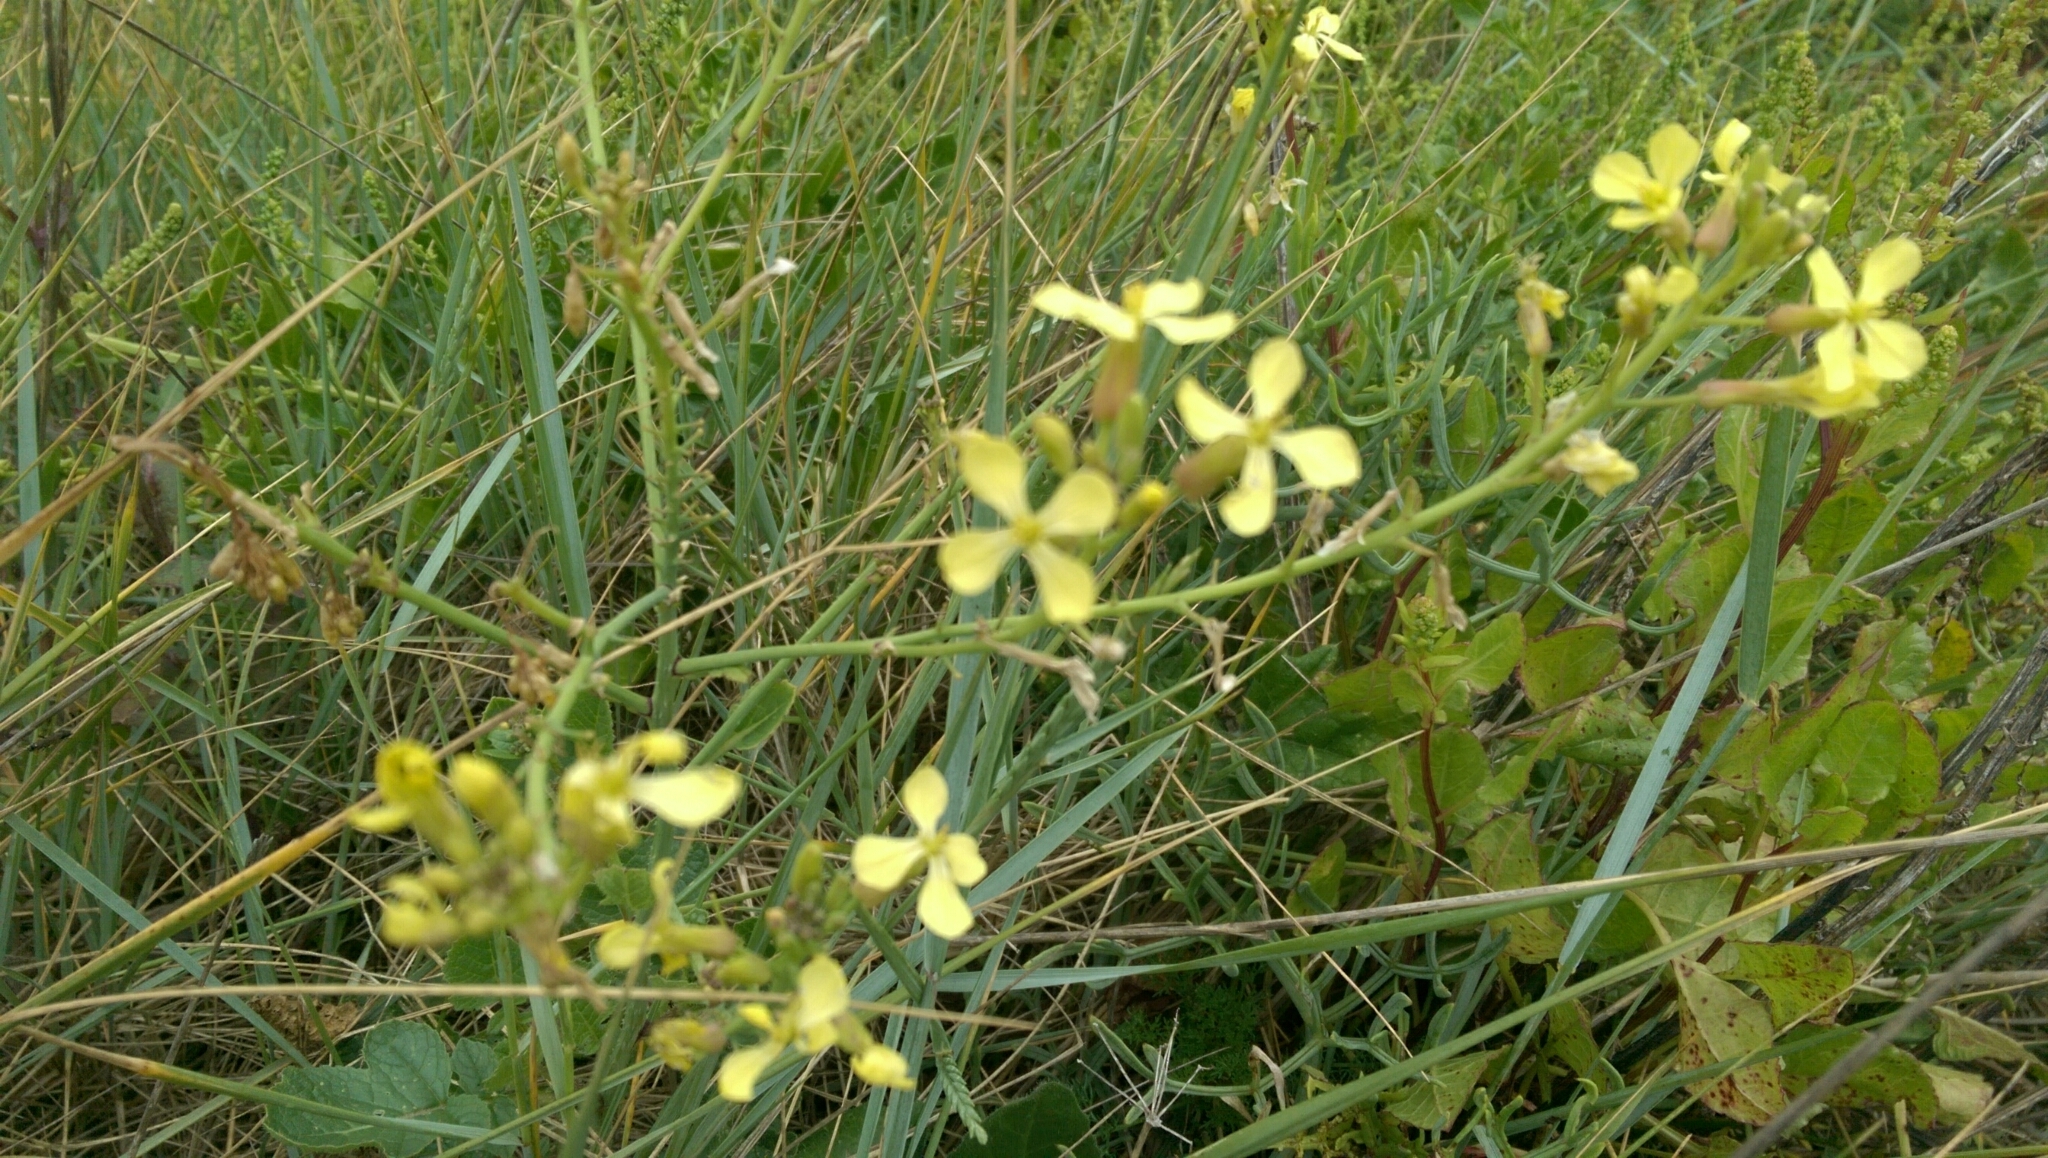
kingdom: Plantae
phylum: Tracheophyta
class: Magnoliopsida
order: Brassicales
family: Brassicaceae
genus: Raphanus
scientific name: Raphanus raphanistrum
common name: Wild radish
